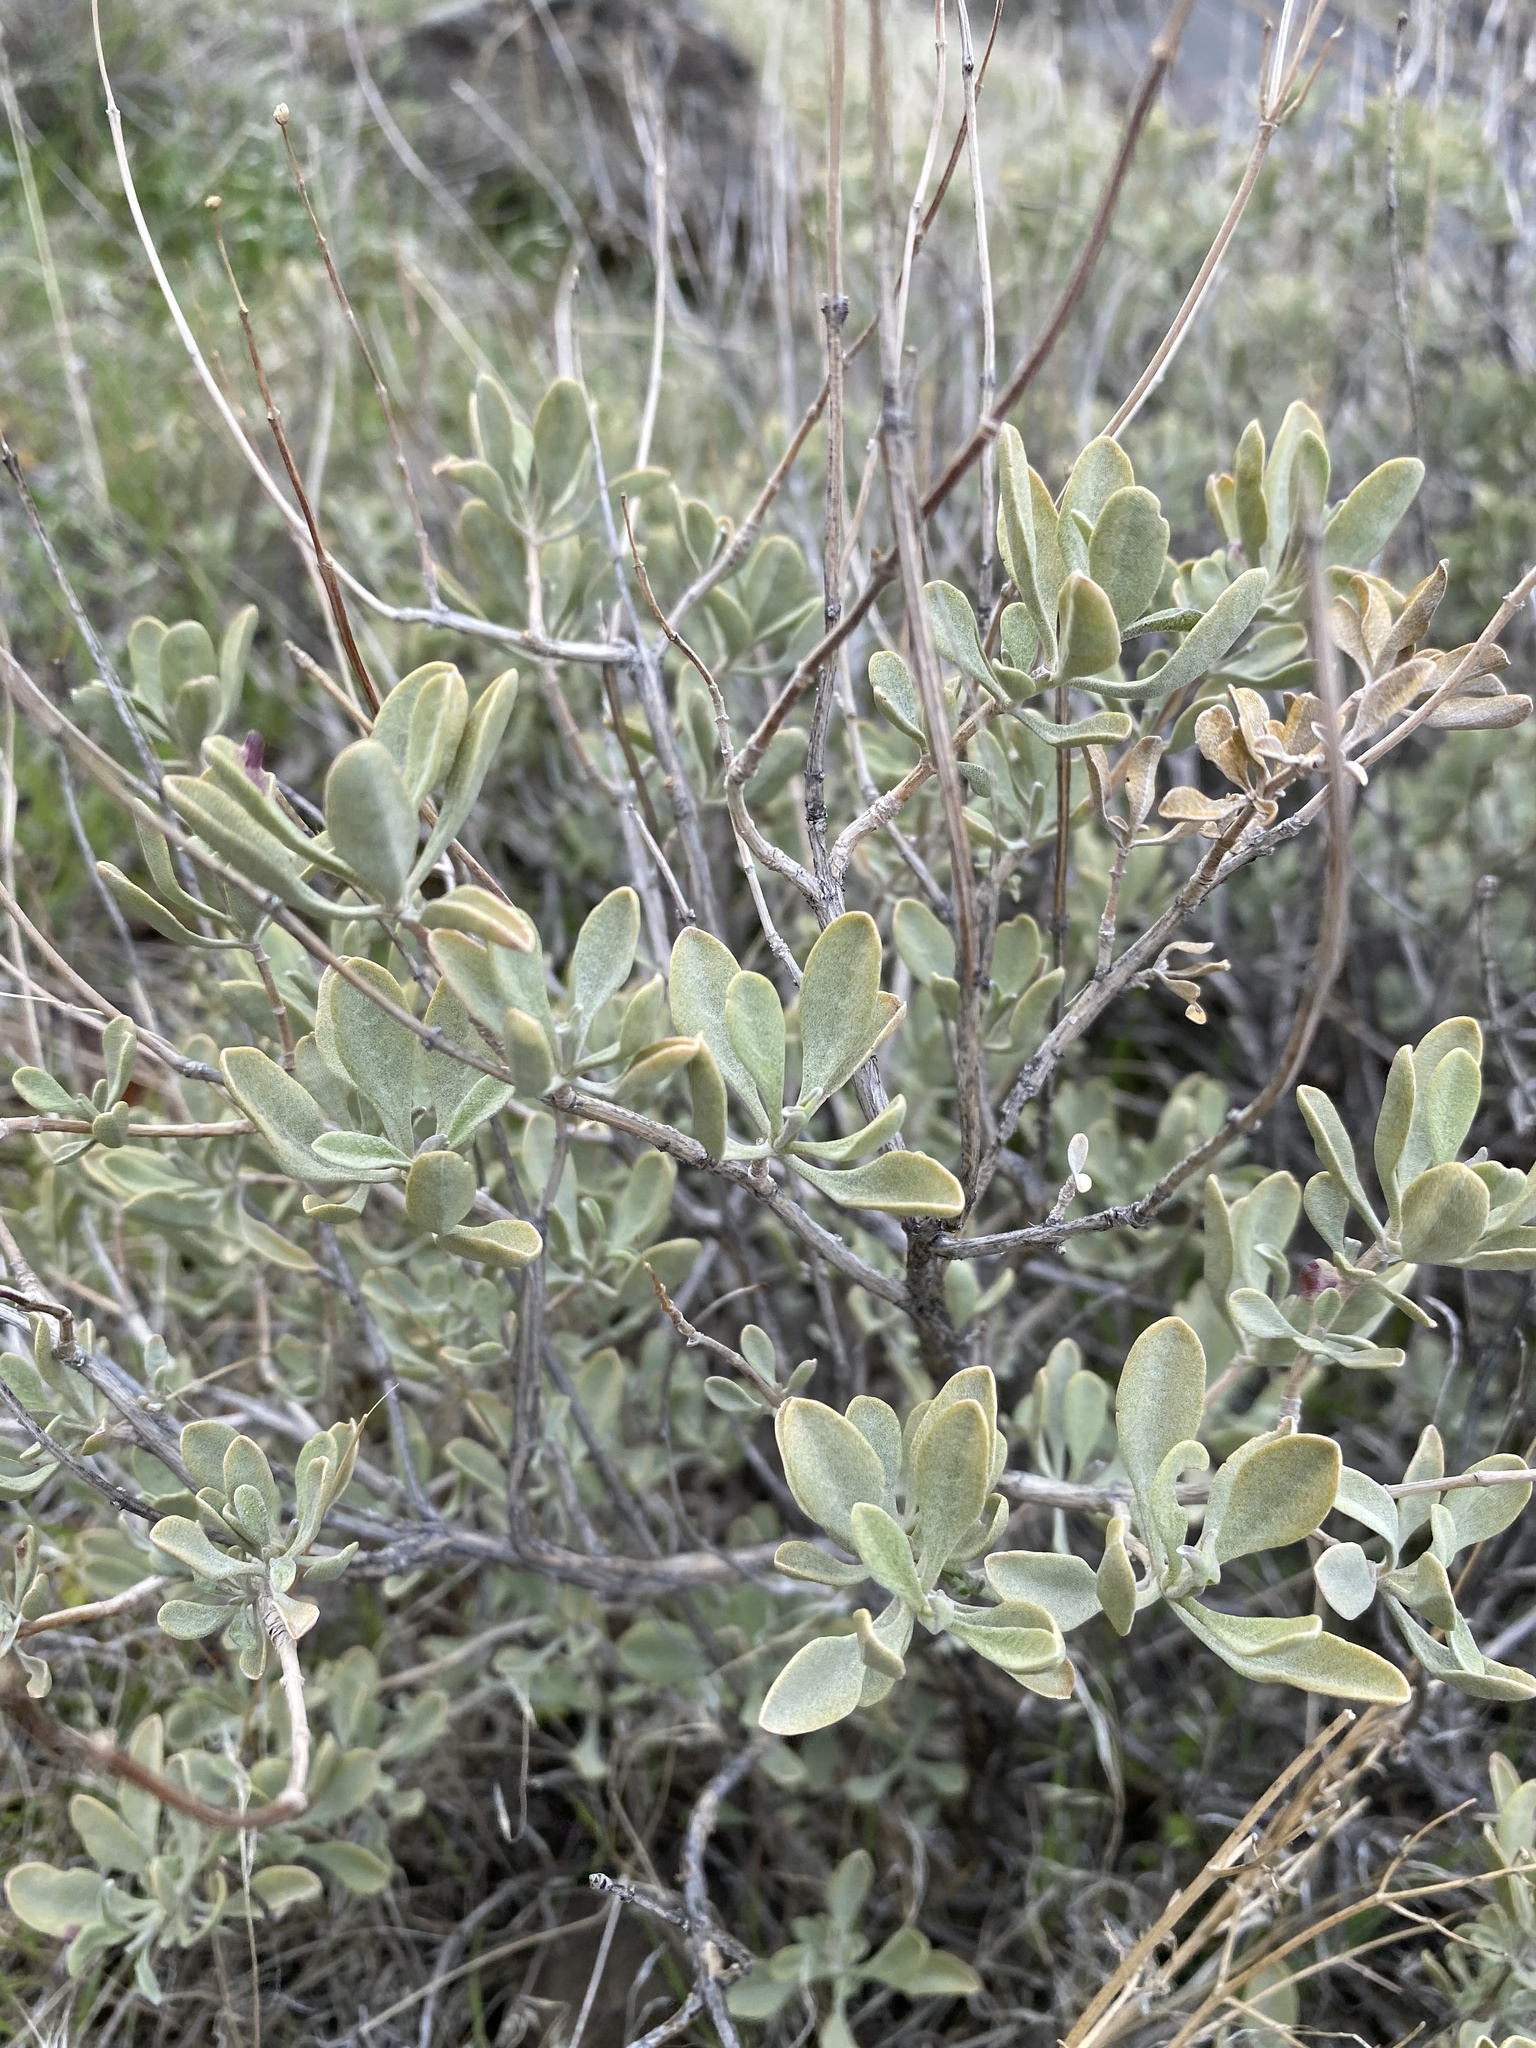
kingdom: Plantae
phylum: Tracheophyta
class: Magnoliopsida
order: Lamiales
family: Lamiaceae
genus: Salvia
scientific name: Salvia dorrii
